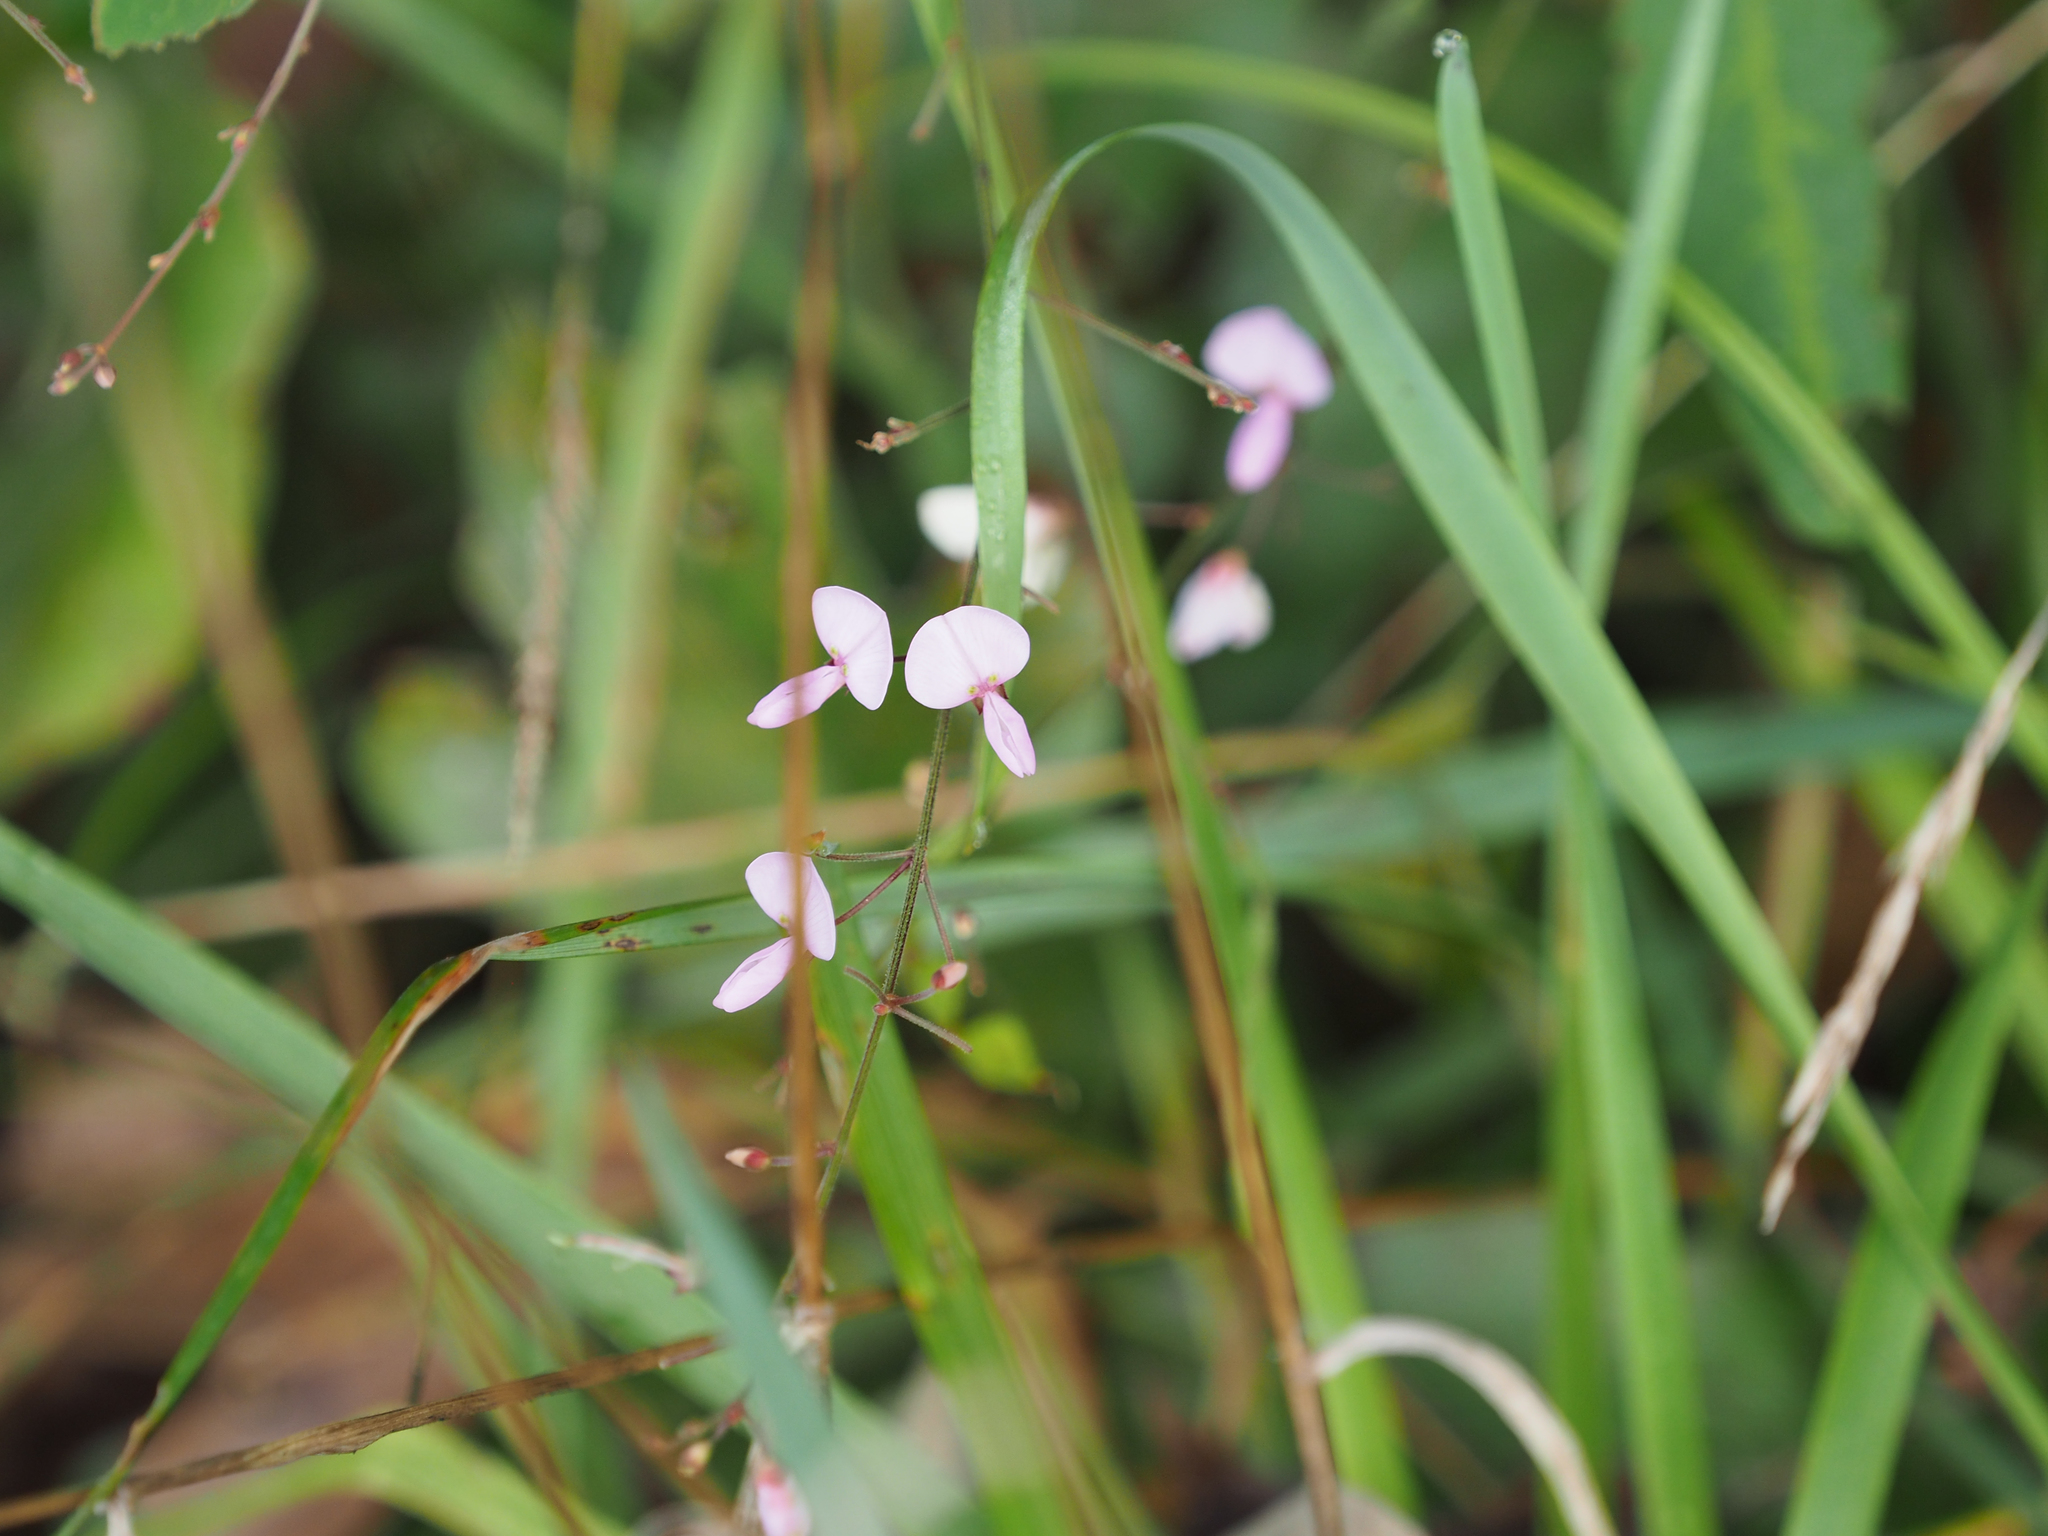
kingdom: Plantae
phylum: Tracheophyta
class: Magnoliopsida
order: Fabales
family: Fabaceae
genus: Desmodium
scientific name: Desmodium paniculatum
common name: Panicled tick-clover
